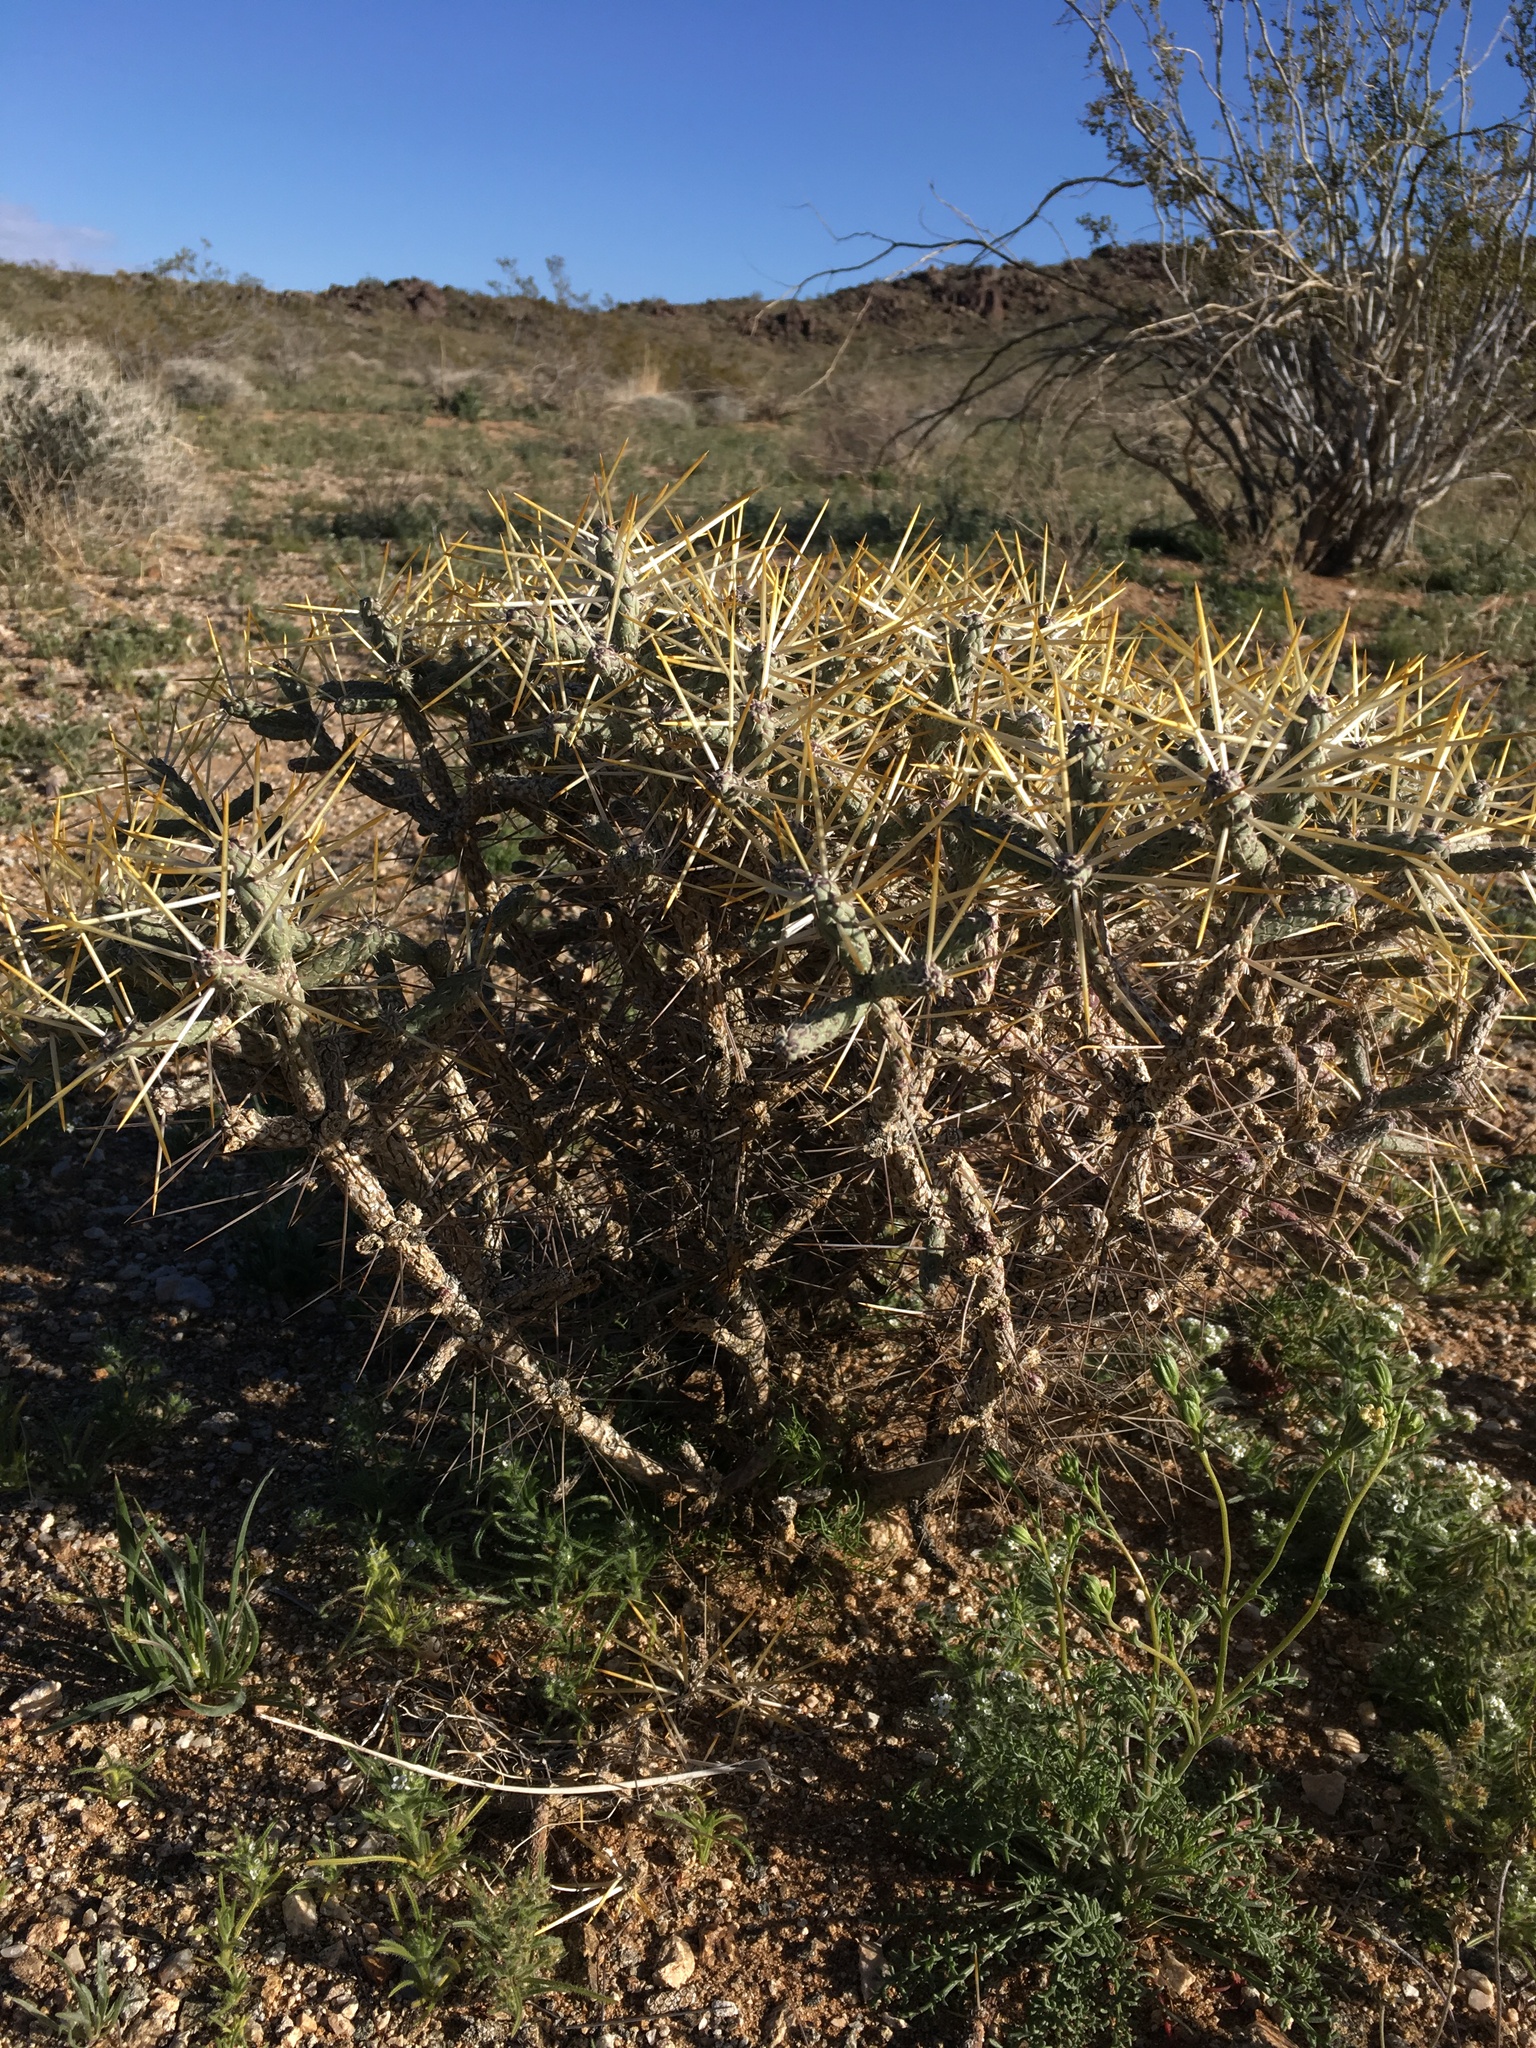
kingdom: Plantae
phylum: Tracheophyta
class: Magnoliopsida
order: Caryophyllales
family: Cactaceae
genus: Cylindropuntia
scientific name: Cylindropuntia ramosissima
